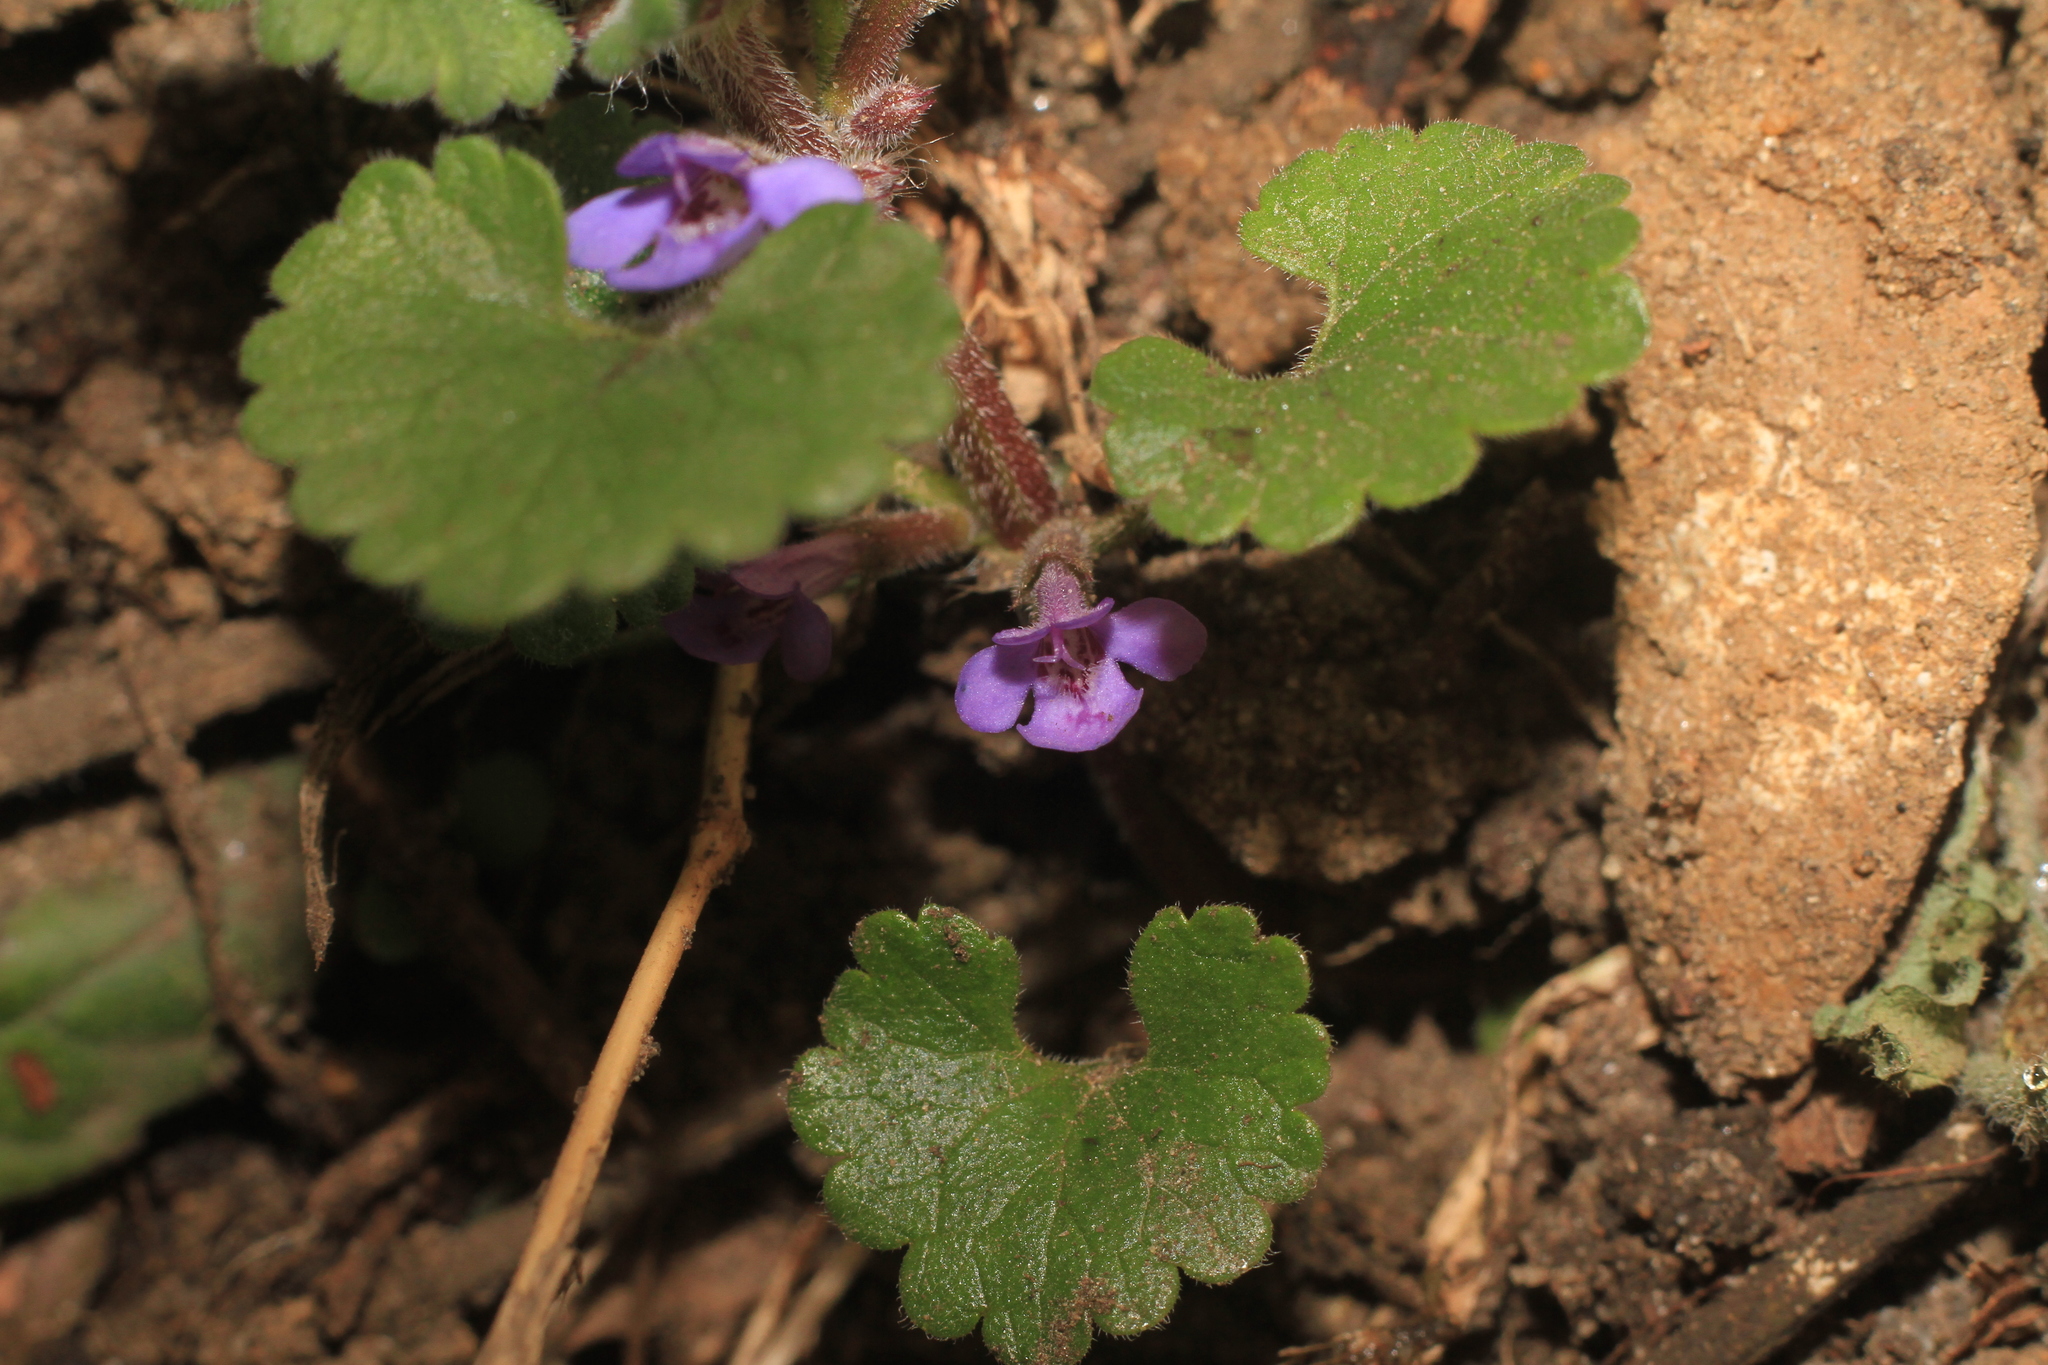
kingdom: Plantae
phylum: Tracheophyta
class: Magnoliopsida
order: Lamiales
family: Lamiaceae
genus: Glechoma
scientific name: Glechoma hederacea
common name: Ground ivy
